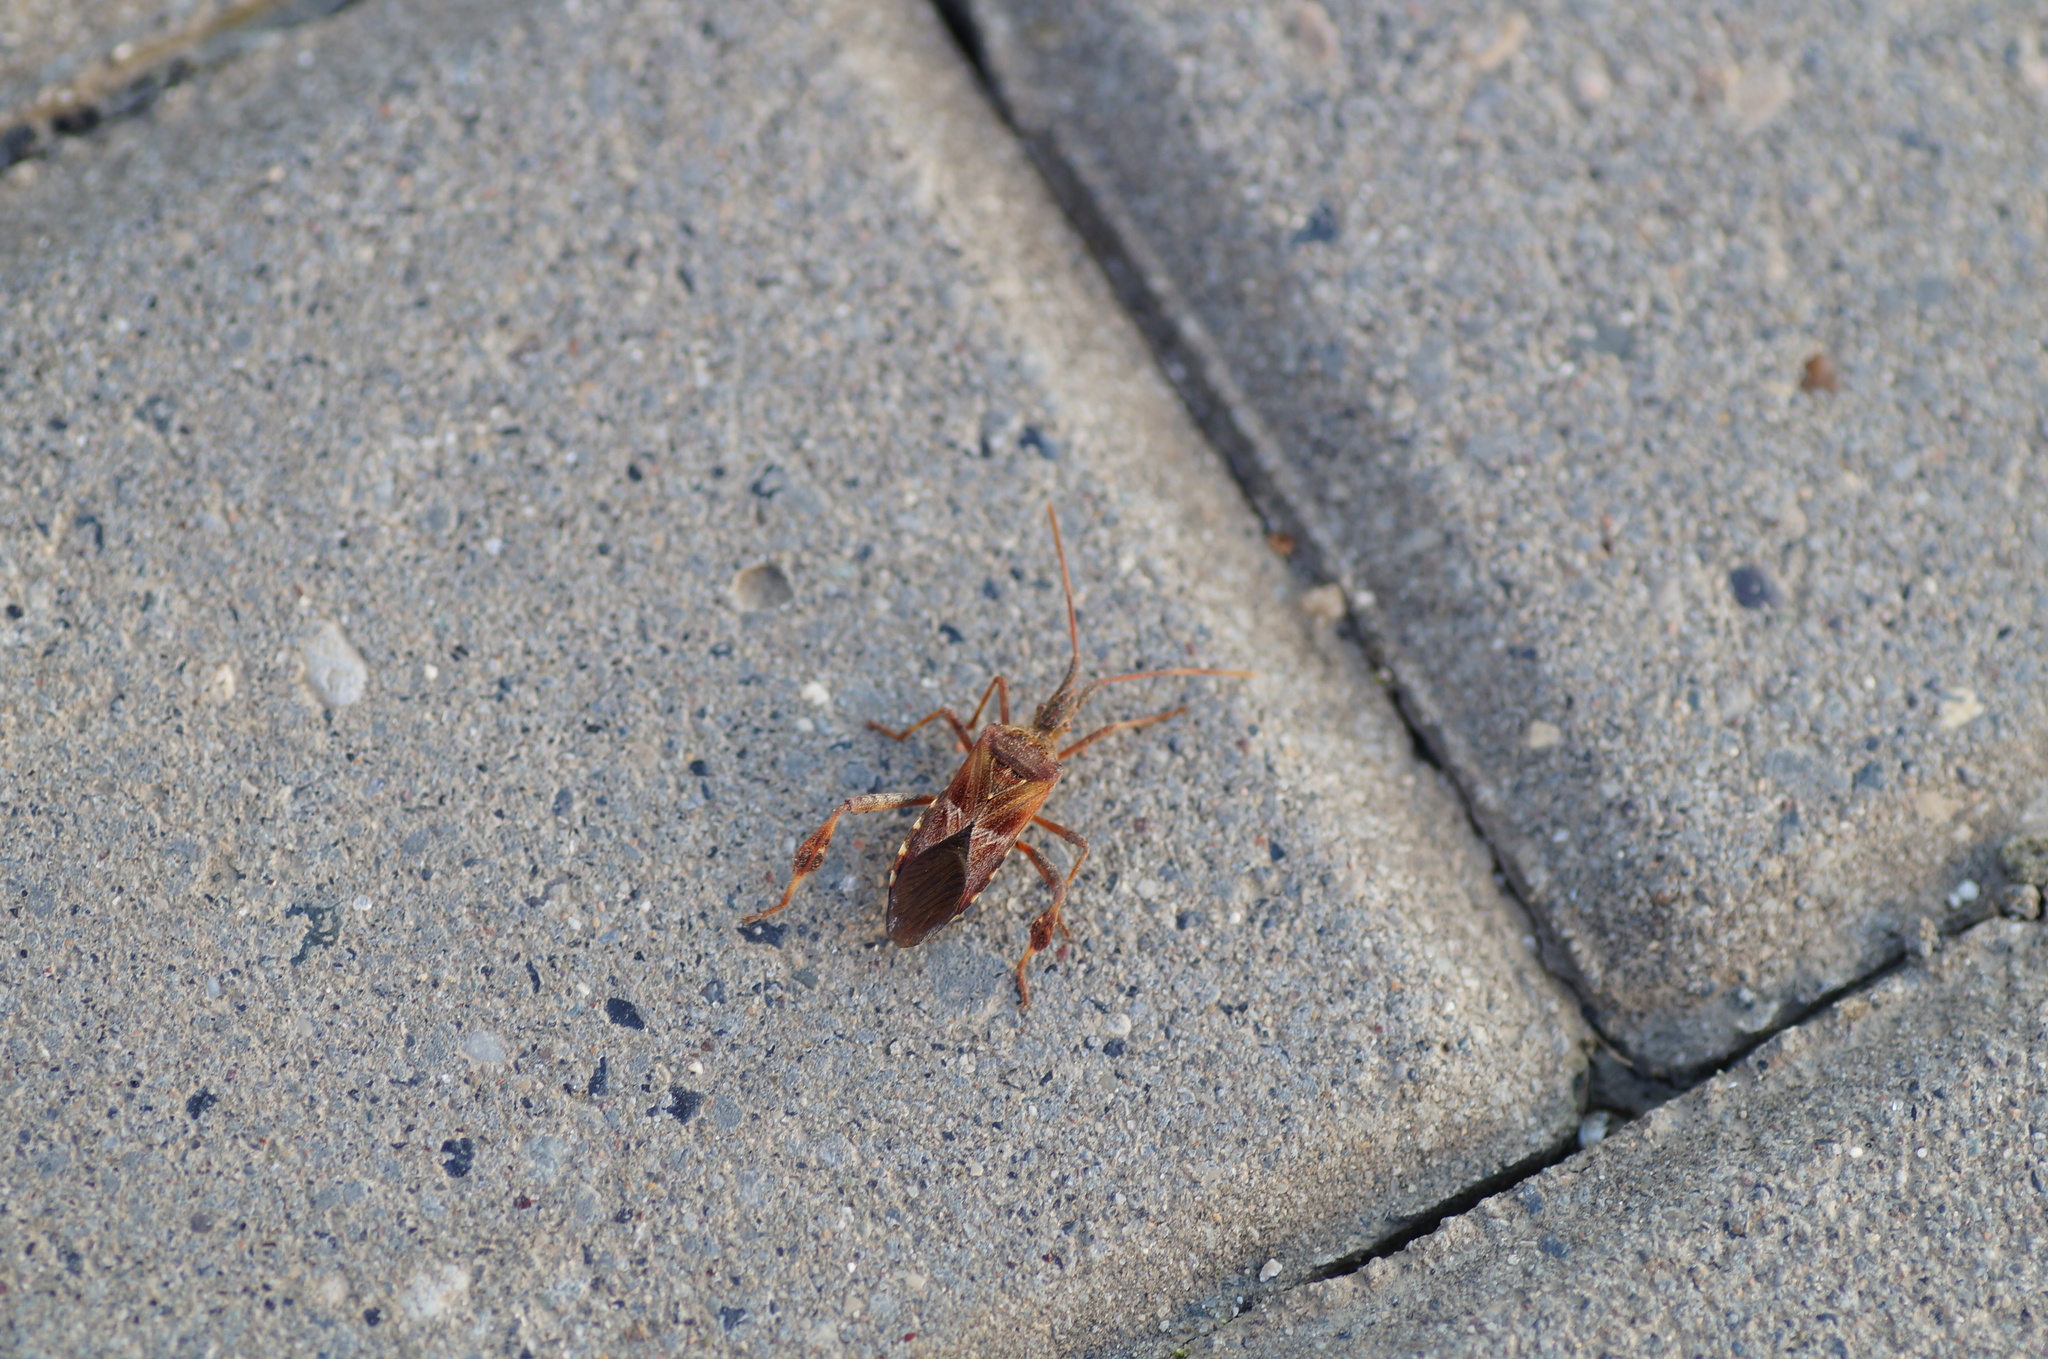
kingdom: Animalia
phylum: Arthropoda
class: Insecta
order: Hemiptera
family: Coreidae
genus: Leptoglossus
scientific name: Leptoglossus occidentalis
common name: Western conifer-seed bug
